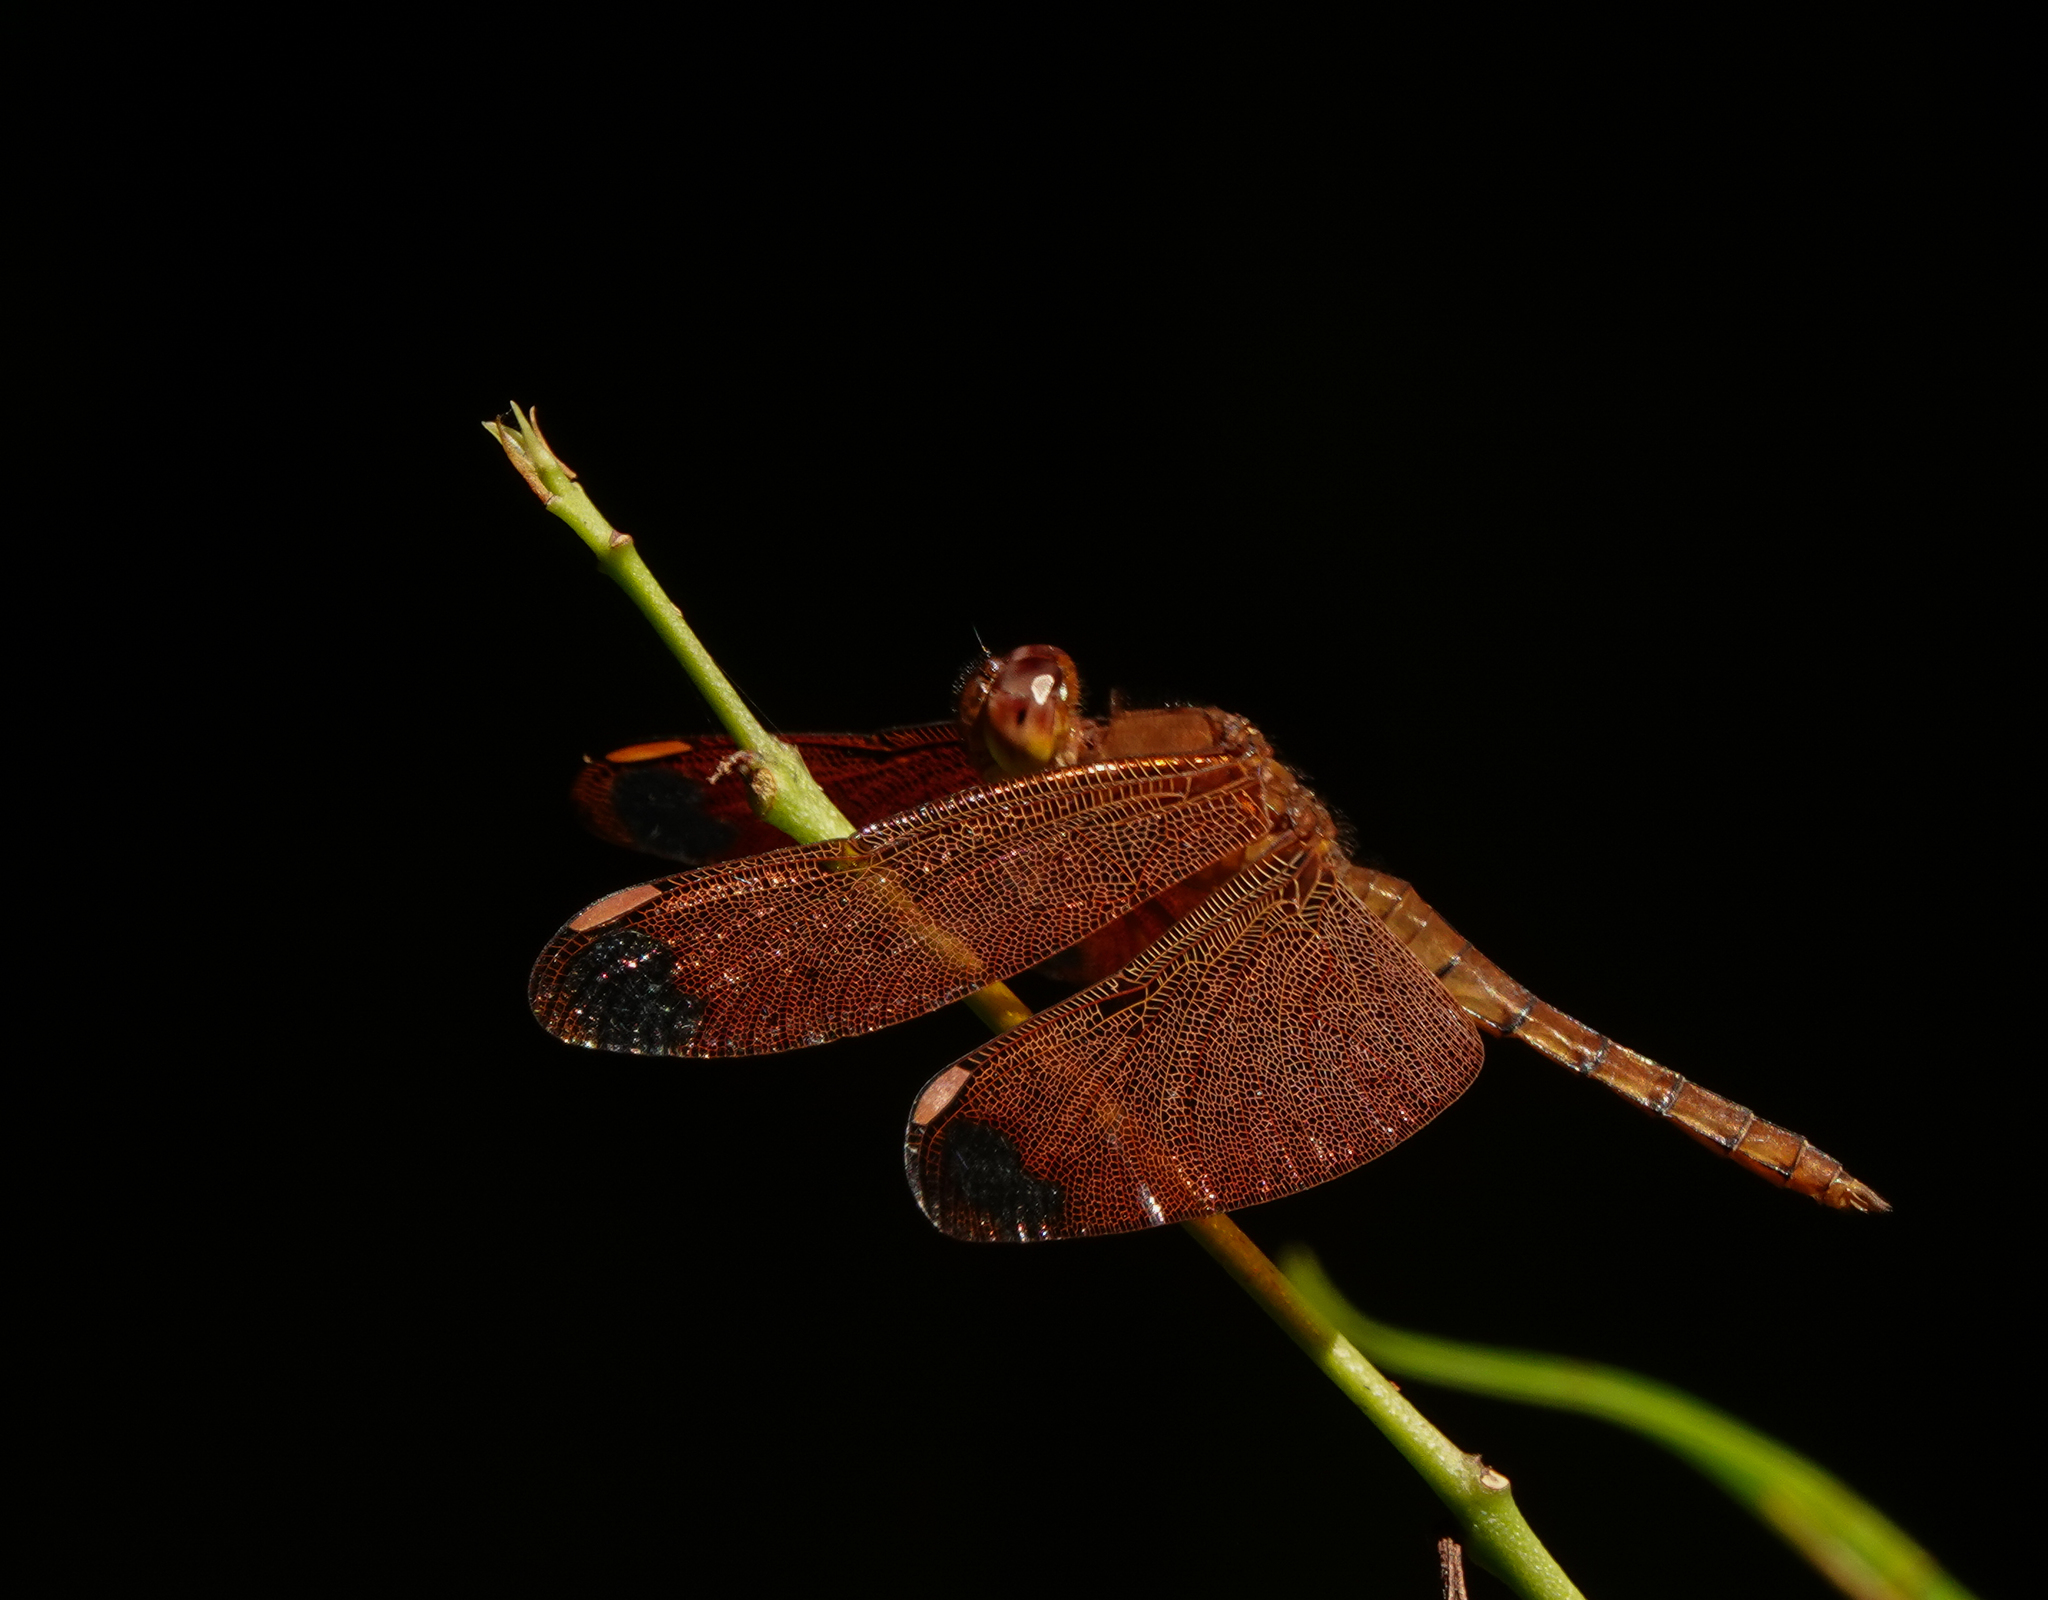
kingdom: Animalia
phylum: Arthropoda
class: Insecta
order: Odonata
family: Libellulidae
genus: Neurothemis
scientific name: Neurothemis fulvia
